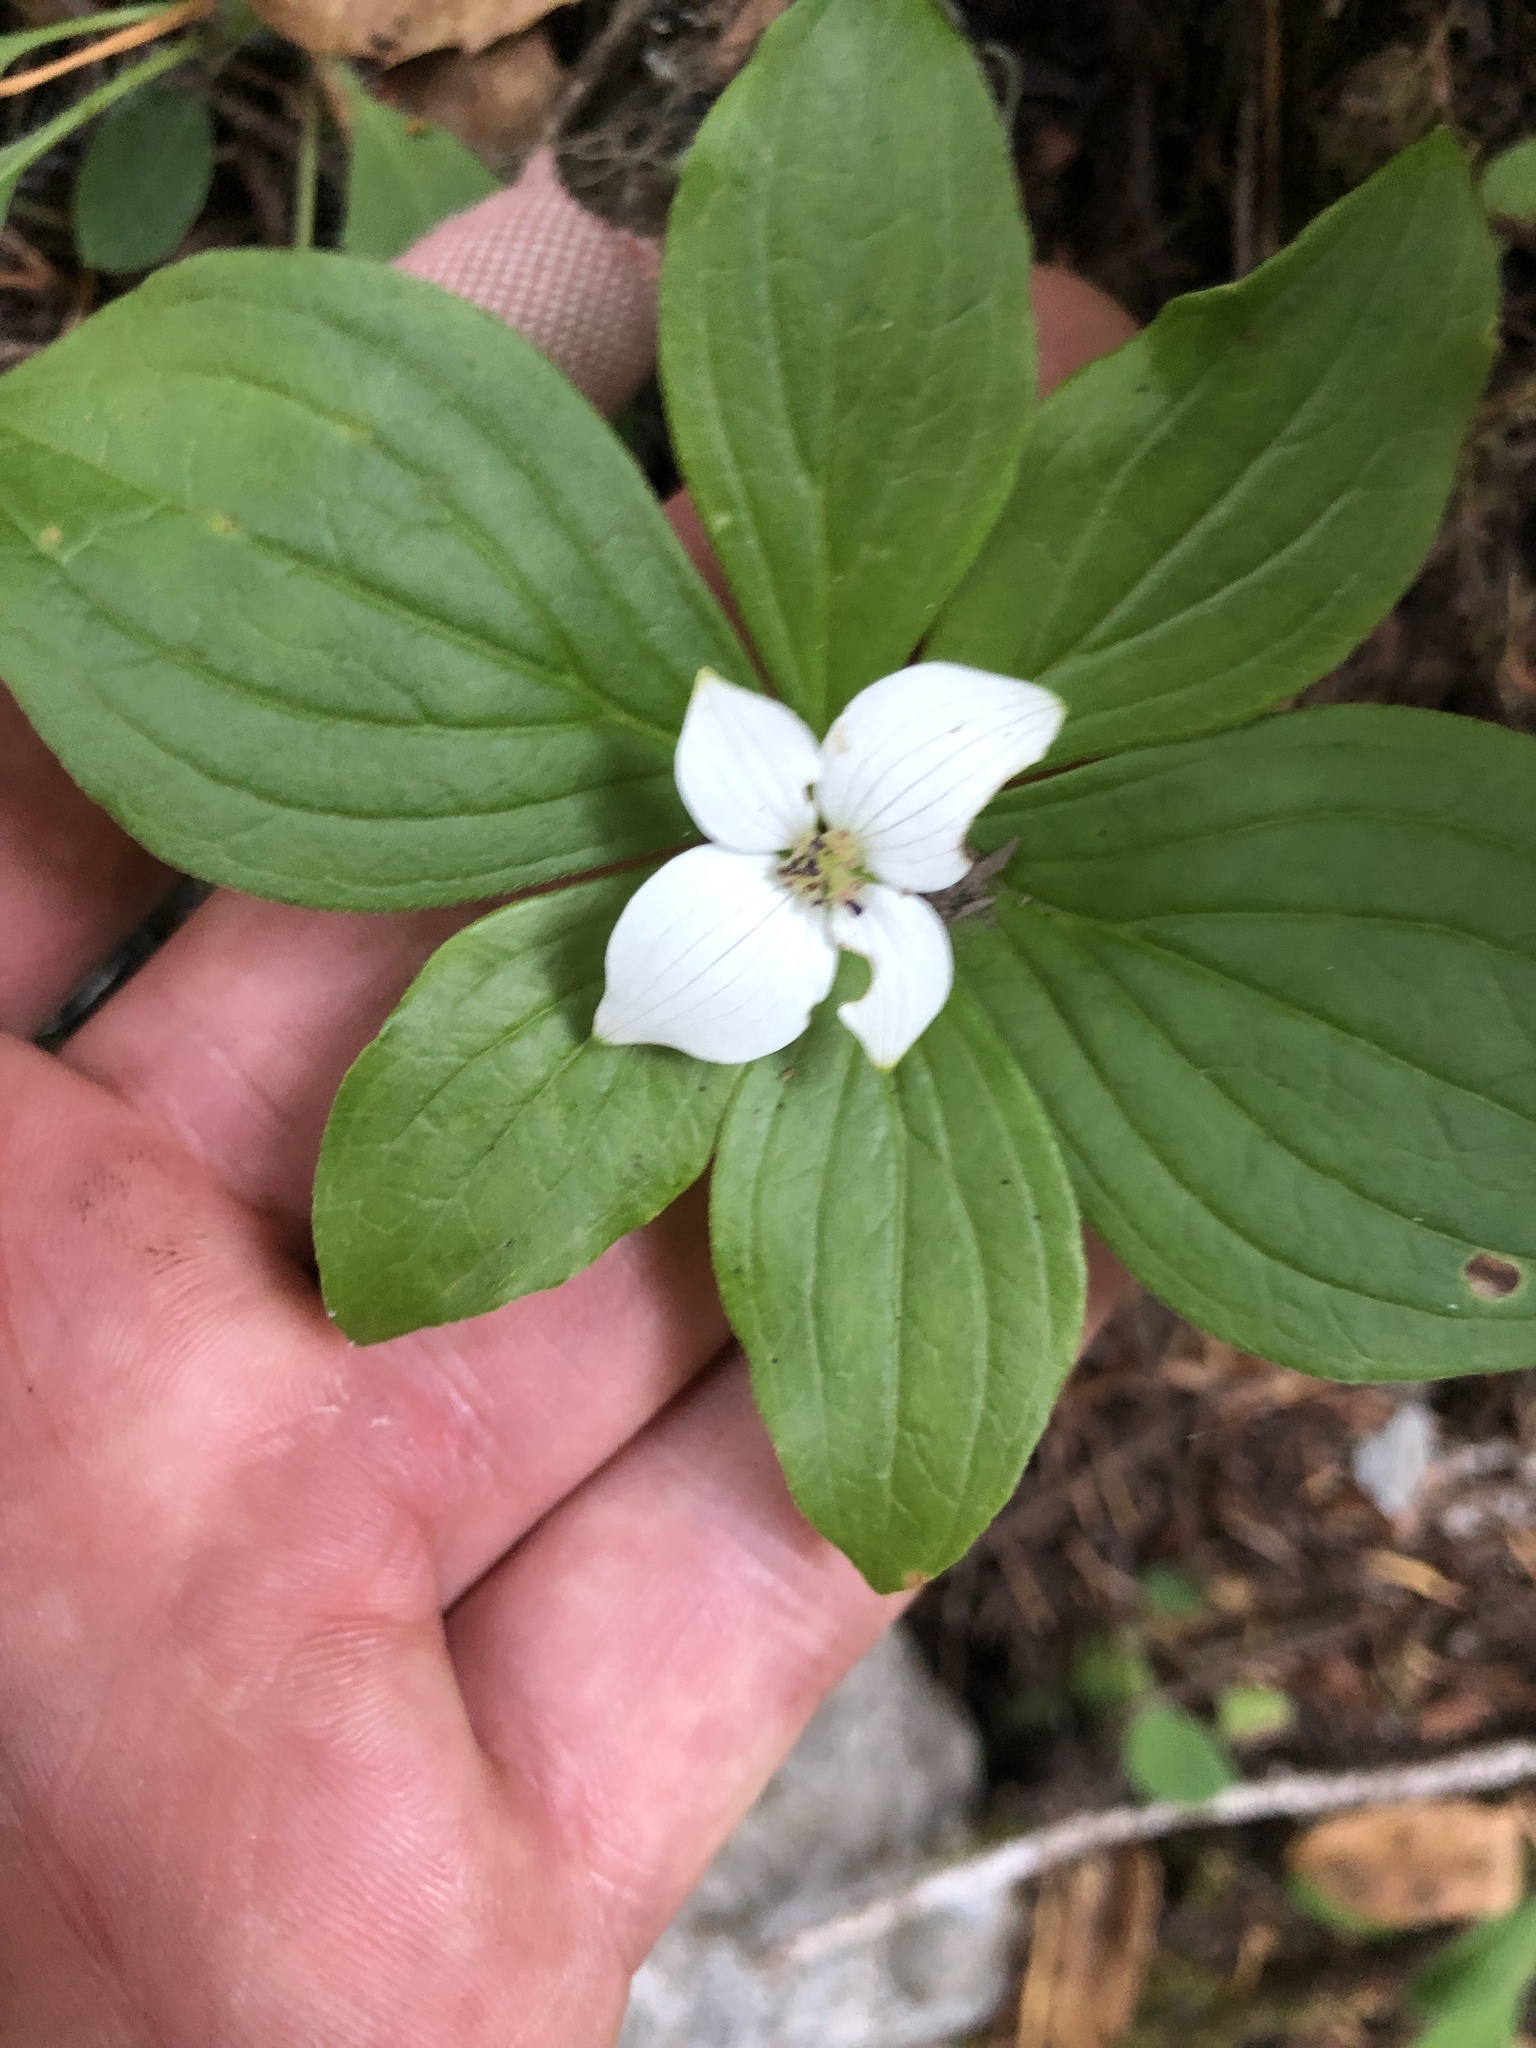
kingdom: Plantae
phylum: Tracheophyta
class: Magnoliopsida
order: Cornales
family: Cornaceae
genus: Cornus
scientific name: Cornus unalaschkensis
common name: Alaska bunchberry
